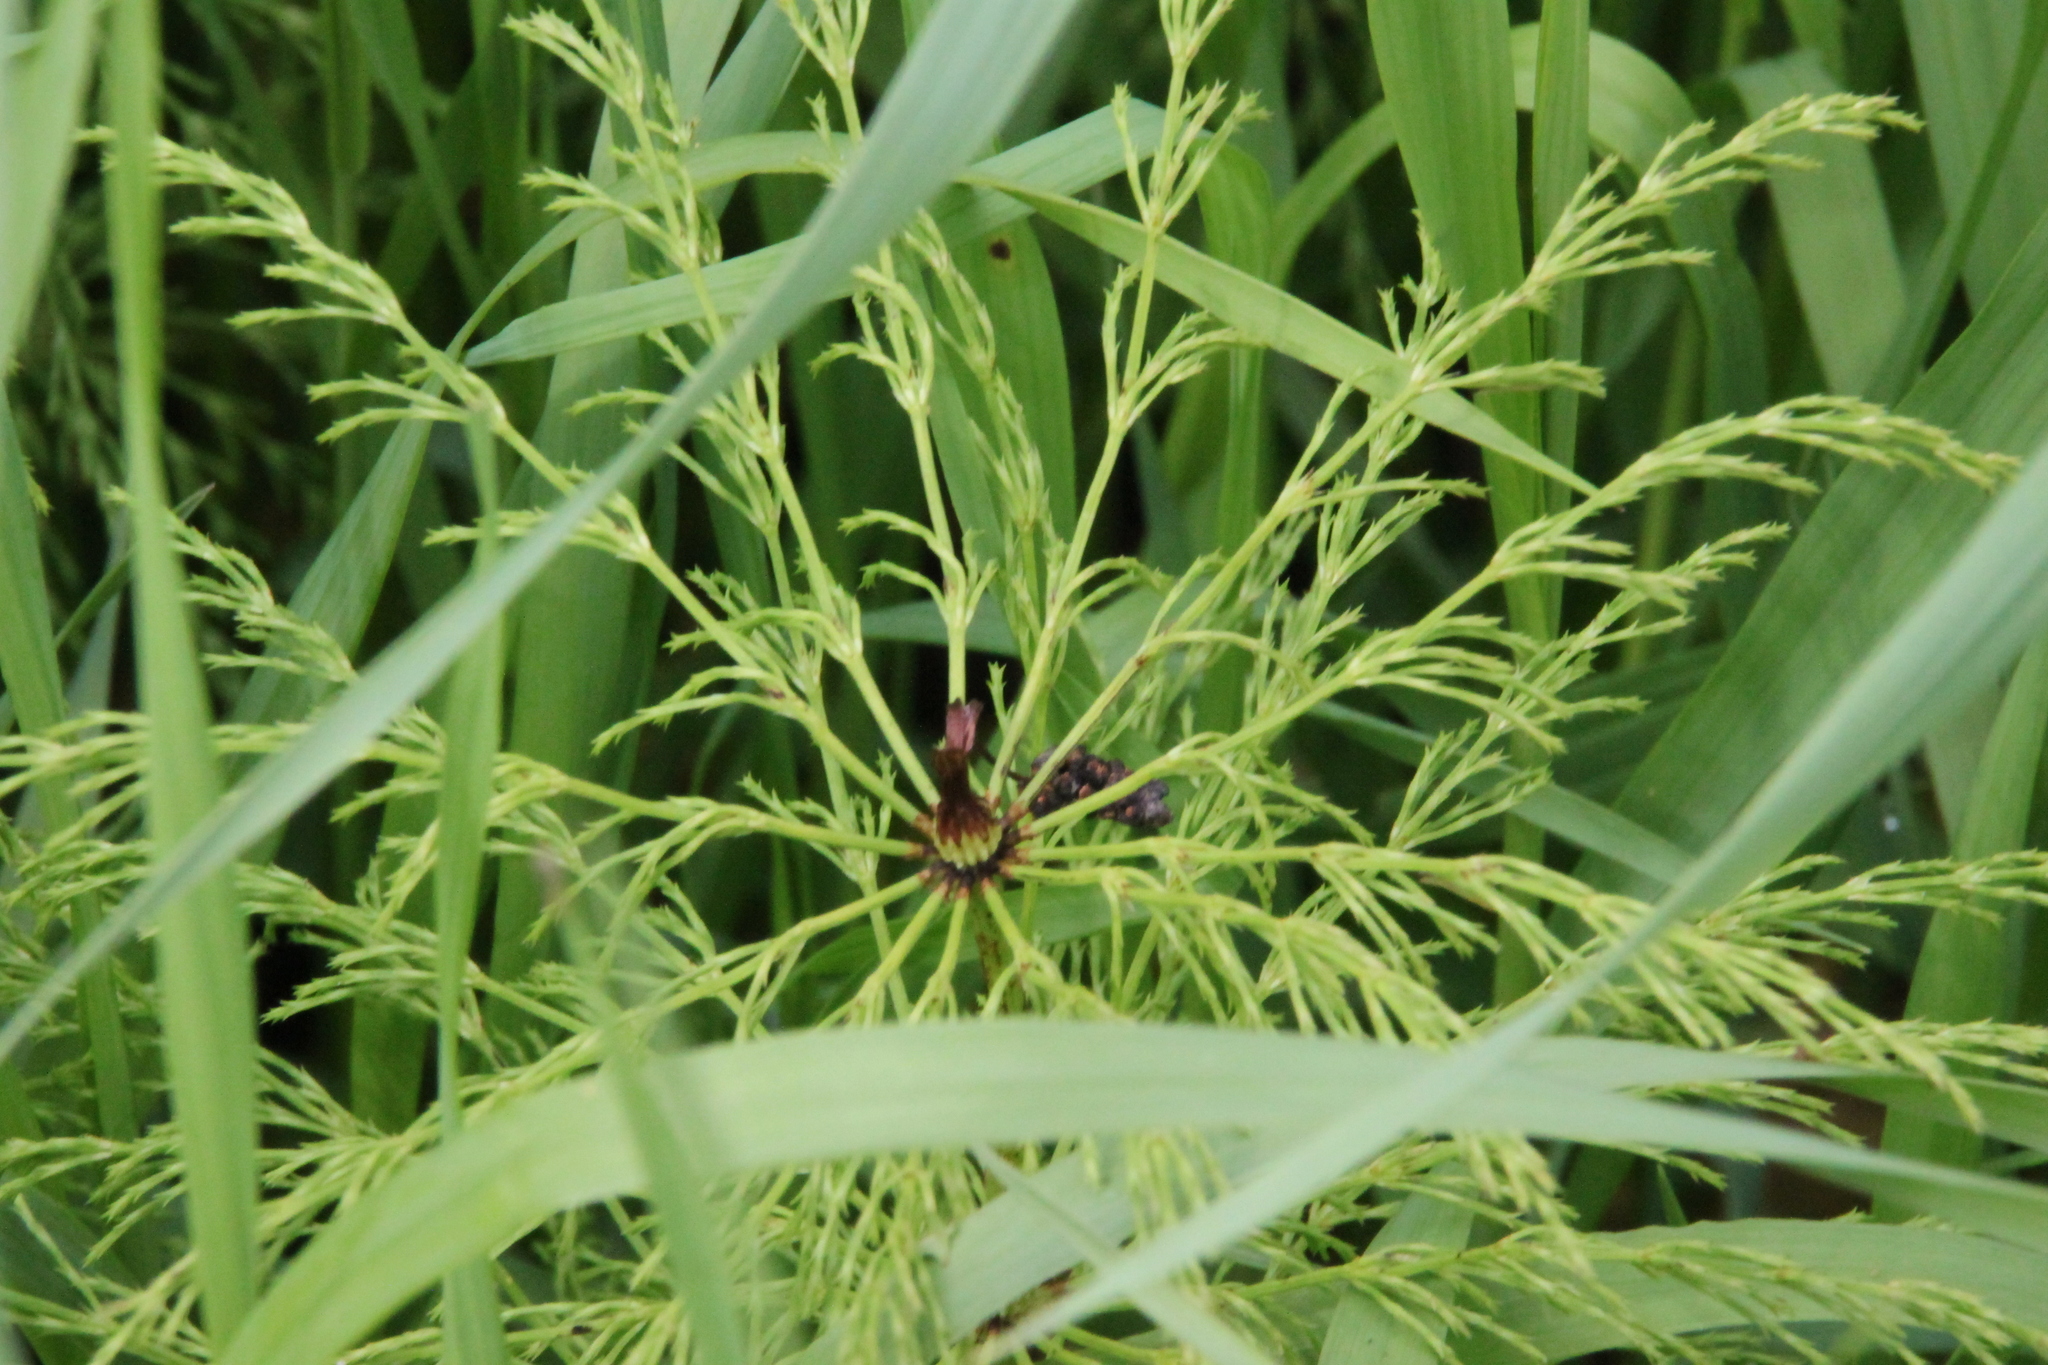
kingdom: Plantae
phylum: Tracheophyta
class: Polypodiopsida
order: Equisetales
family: Equisetaceae
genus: Equisetum
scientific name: Equisetum sylvaticum
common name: Wood horsetail
